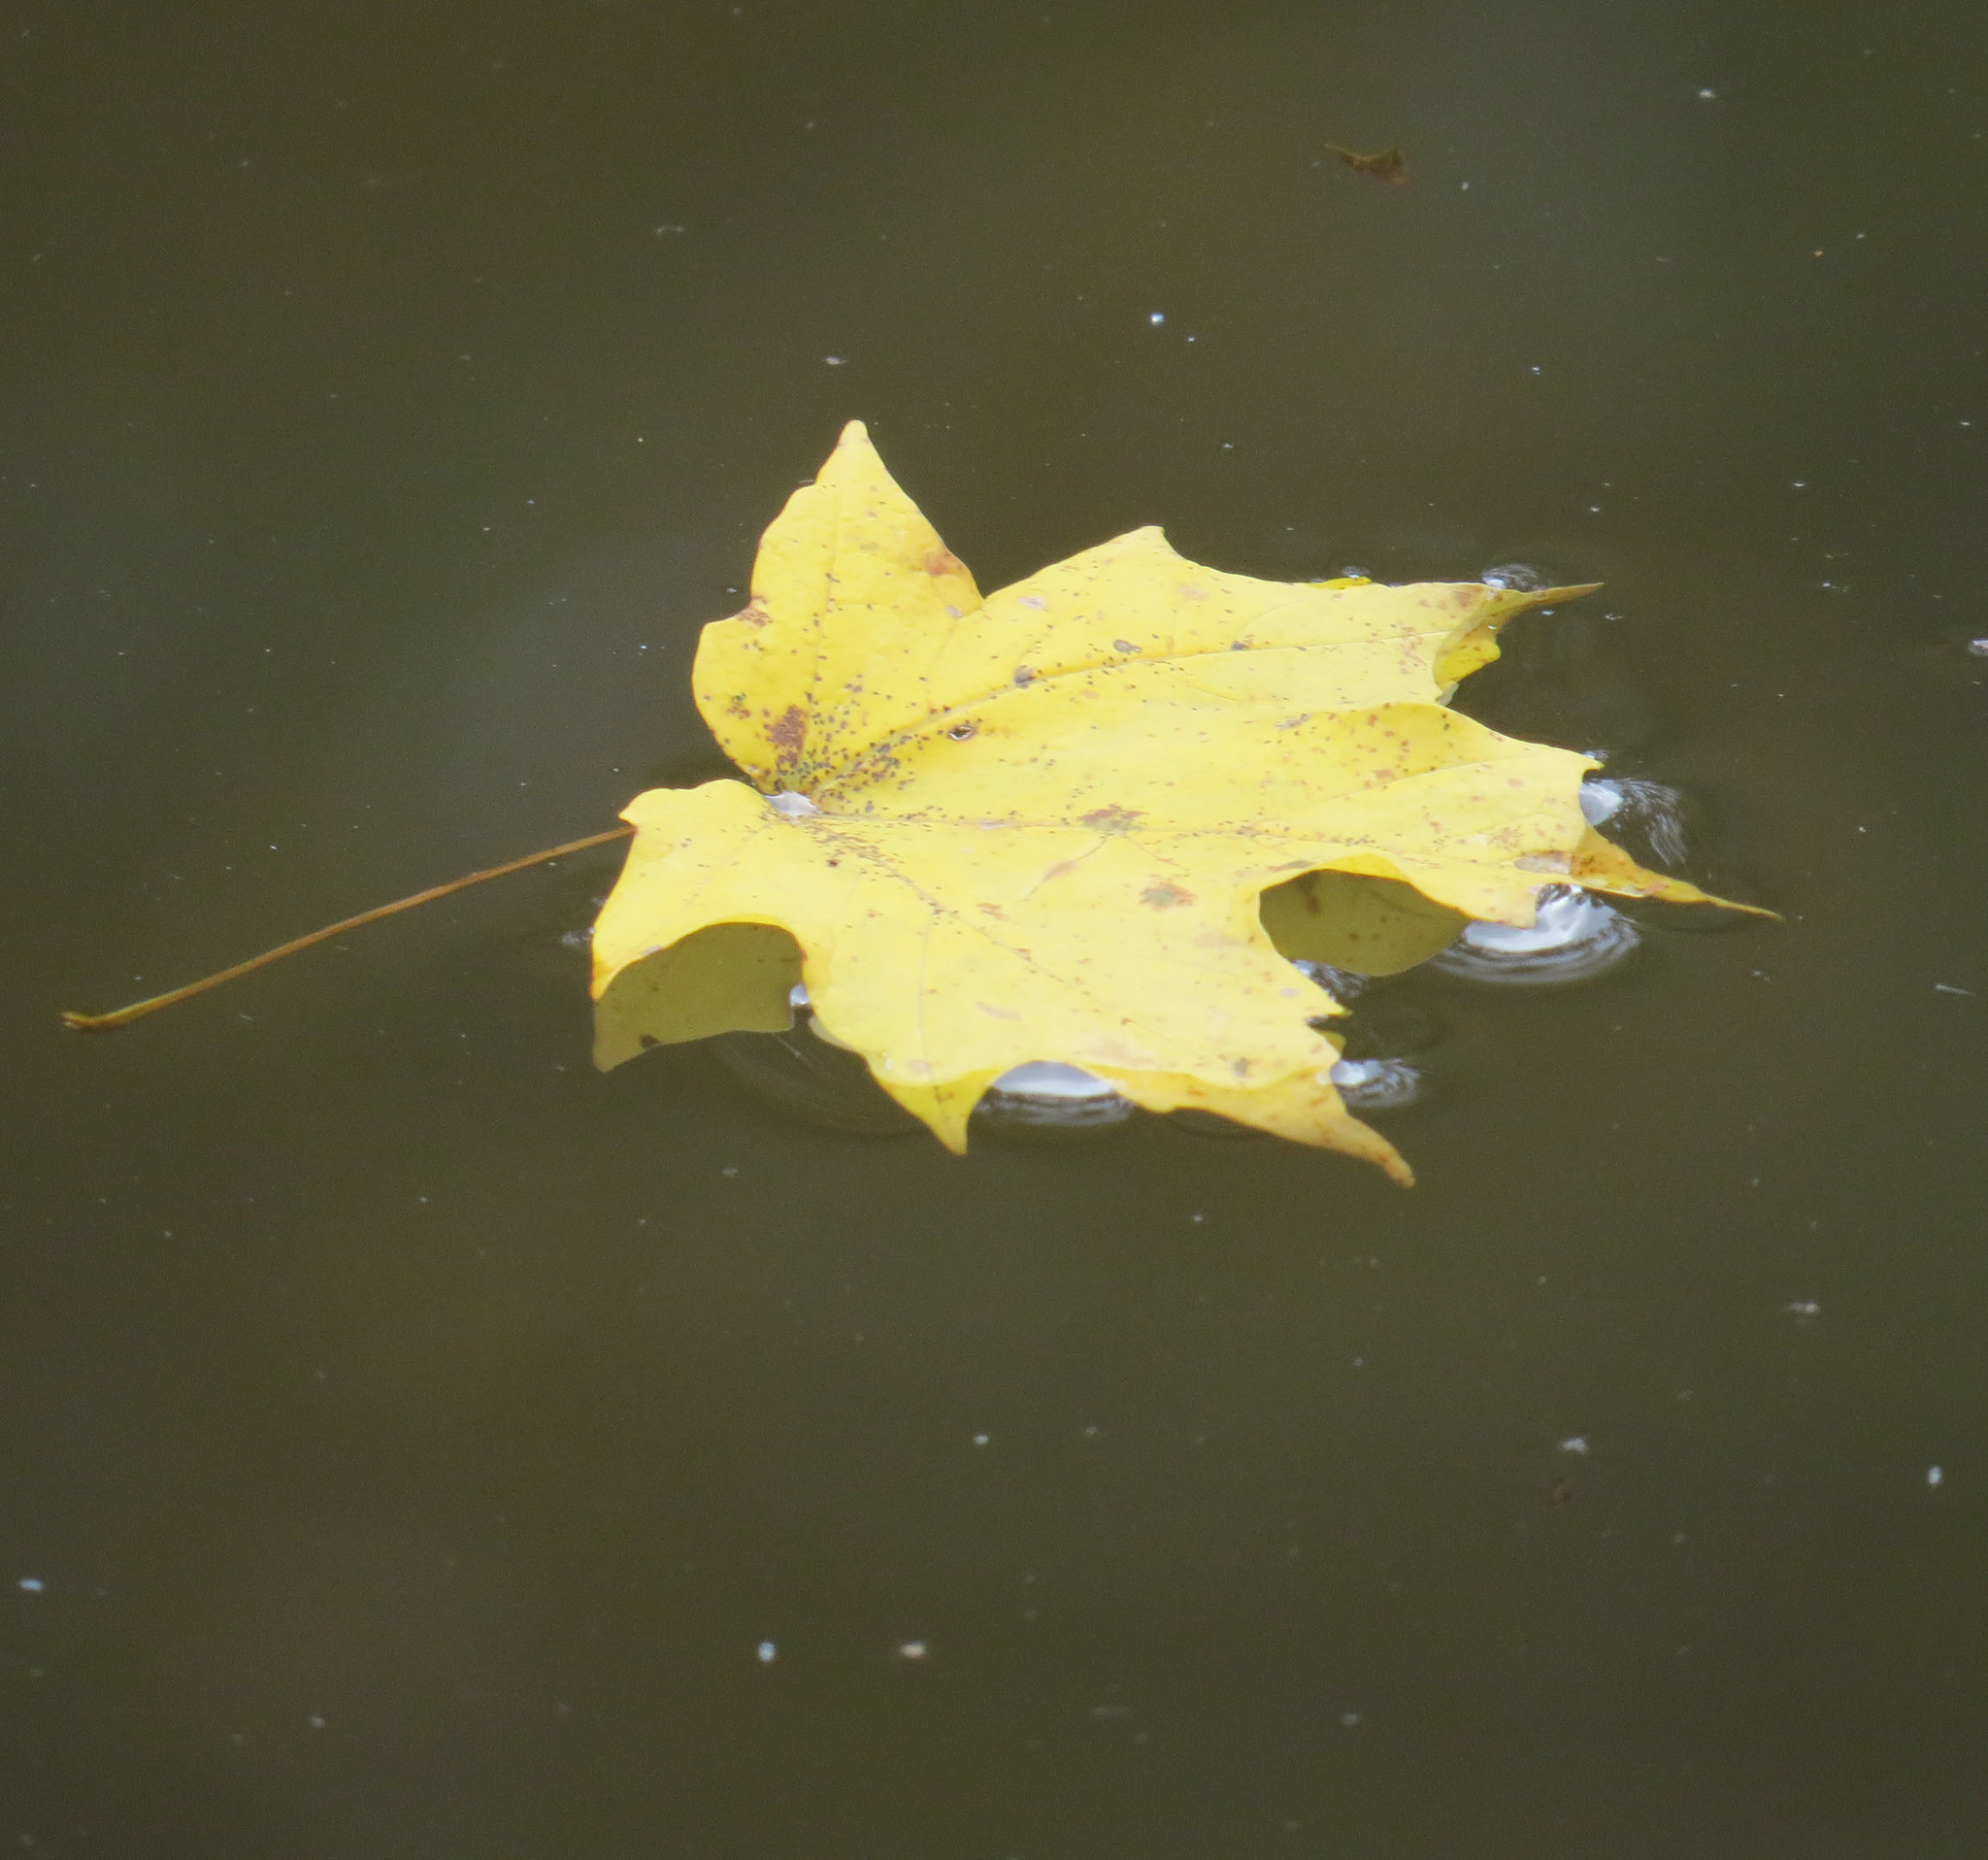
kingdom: Plantae
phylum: Tracheophyta
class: Magnoliopsida
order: Sapindales
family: Sapindaceae
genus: Acer
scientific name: Acer saccharum
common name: Sugar maple
